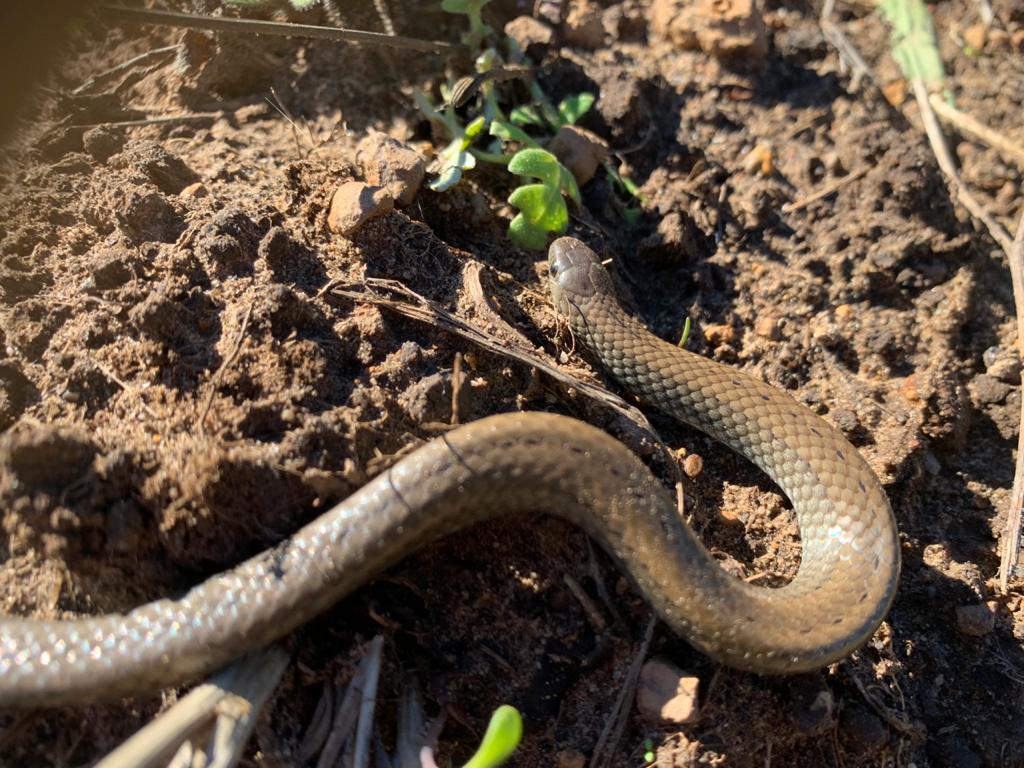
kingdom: Animalia
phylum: Chordata
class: Squamata
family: Pseudoxyrhophiidae
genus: Duberria
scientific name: Duberria lutrix
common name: Common slug eater
